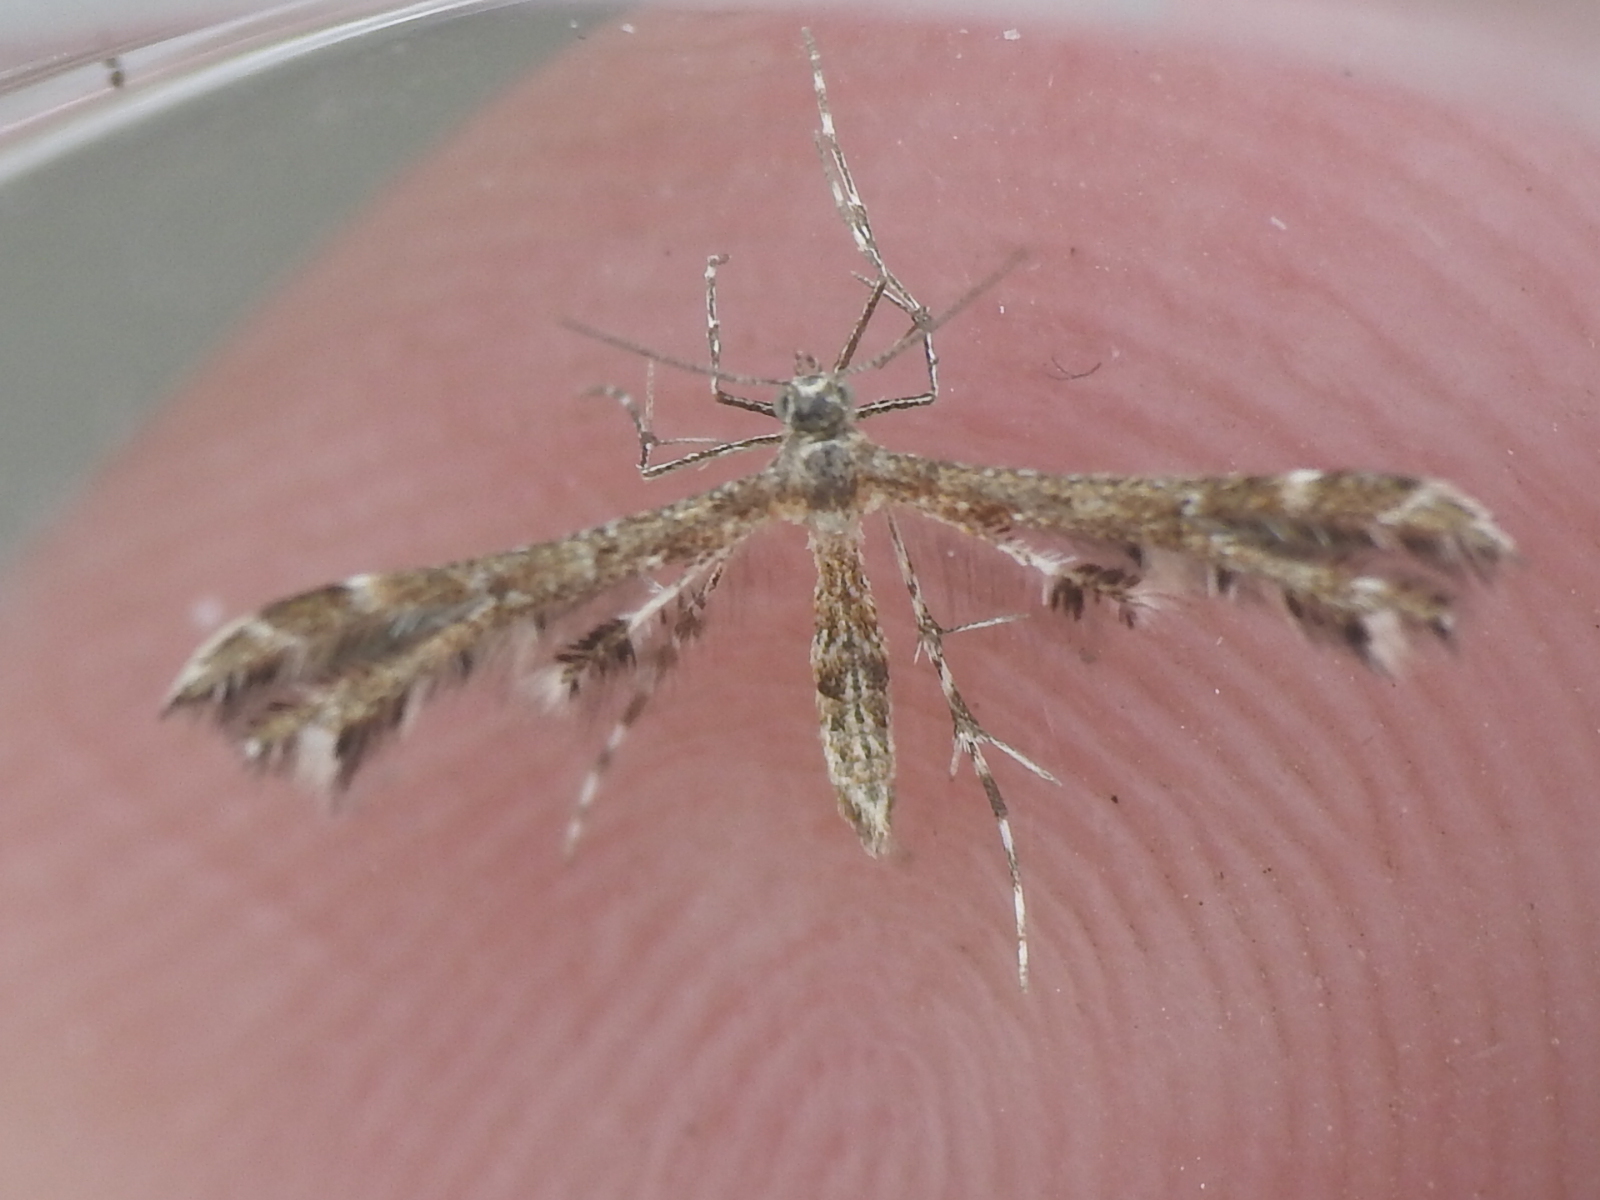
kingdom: Animalia
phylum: Arthropoda
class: Insecta
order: Lepidoptera
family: Pterophoridae
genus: Geina
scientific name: Geina periscelidactylus
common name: Grape plume moth
